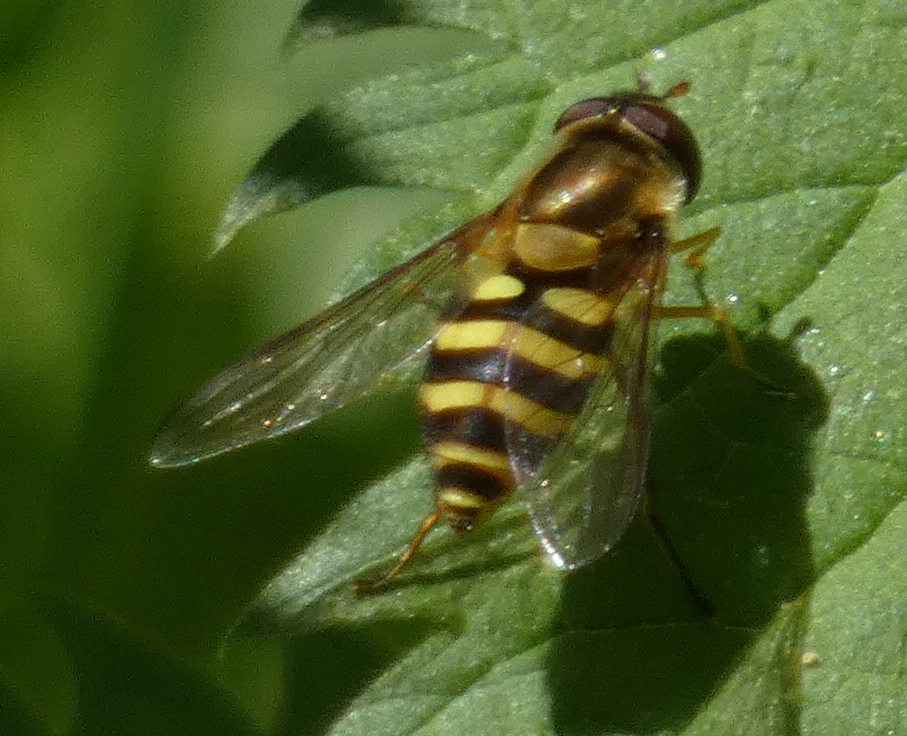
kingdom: Animalia
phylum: Arthropoda
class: Insecta
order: Diptera
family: Syrphidae
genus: Syrphus
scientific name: Syrphus
